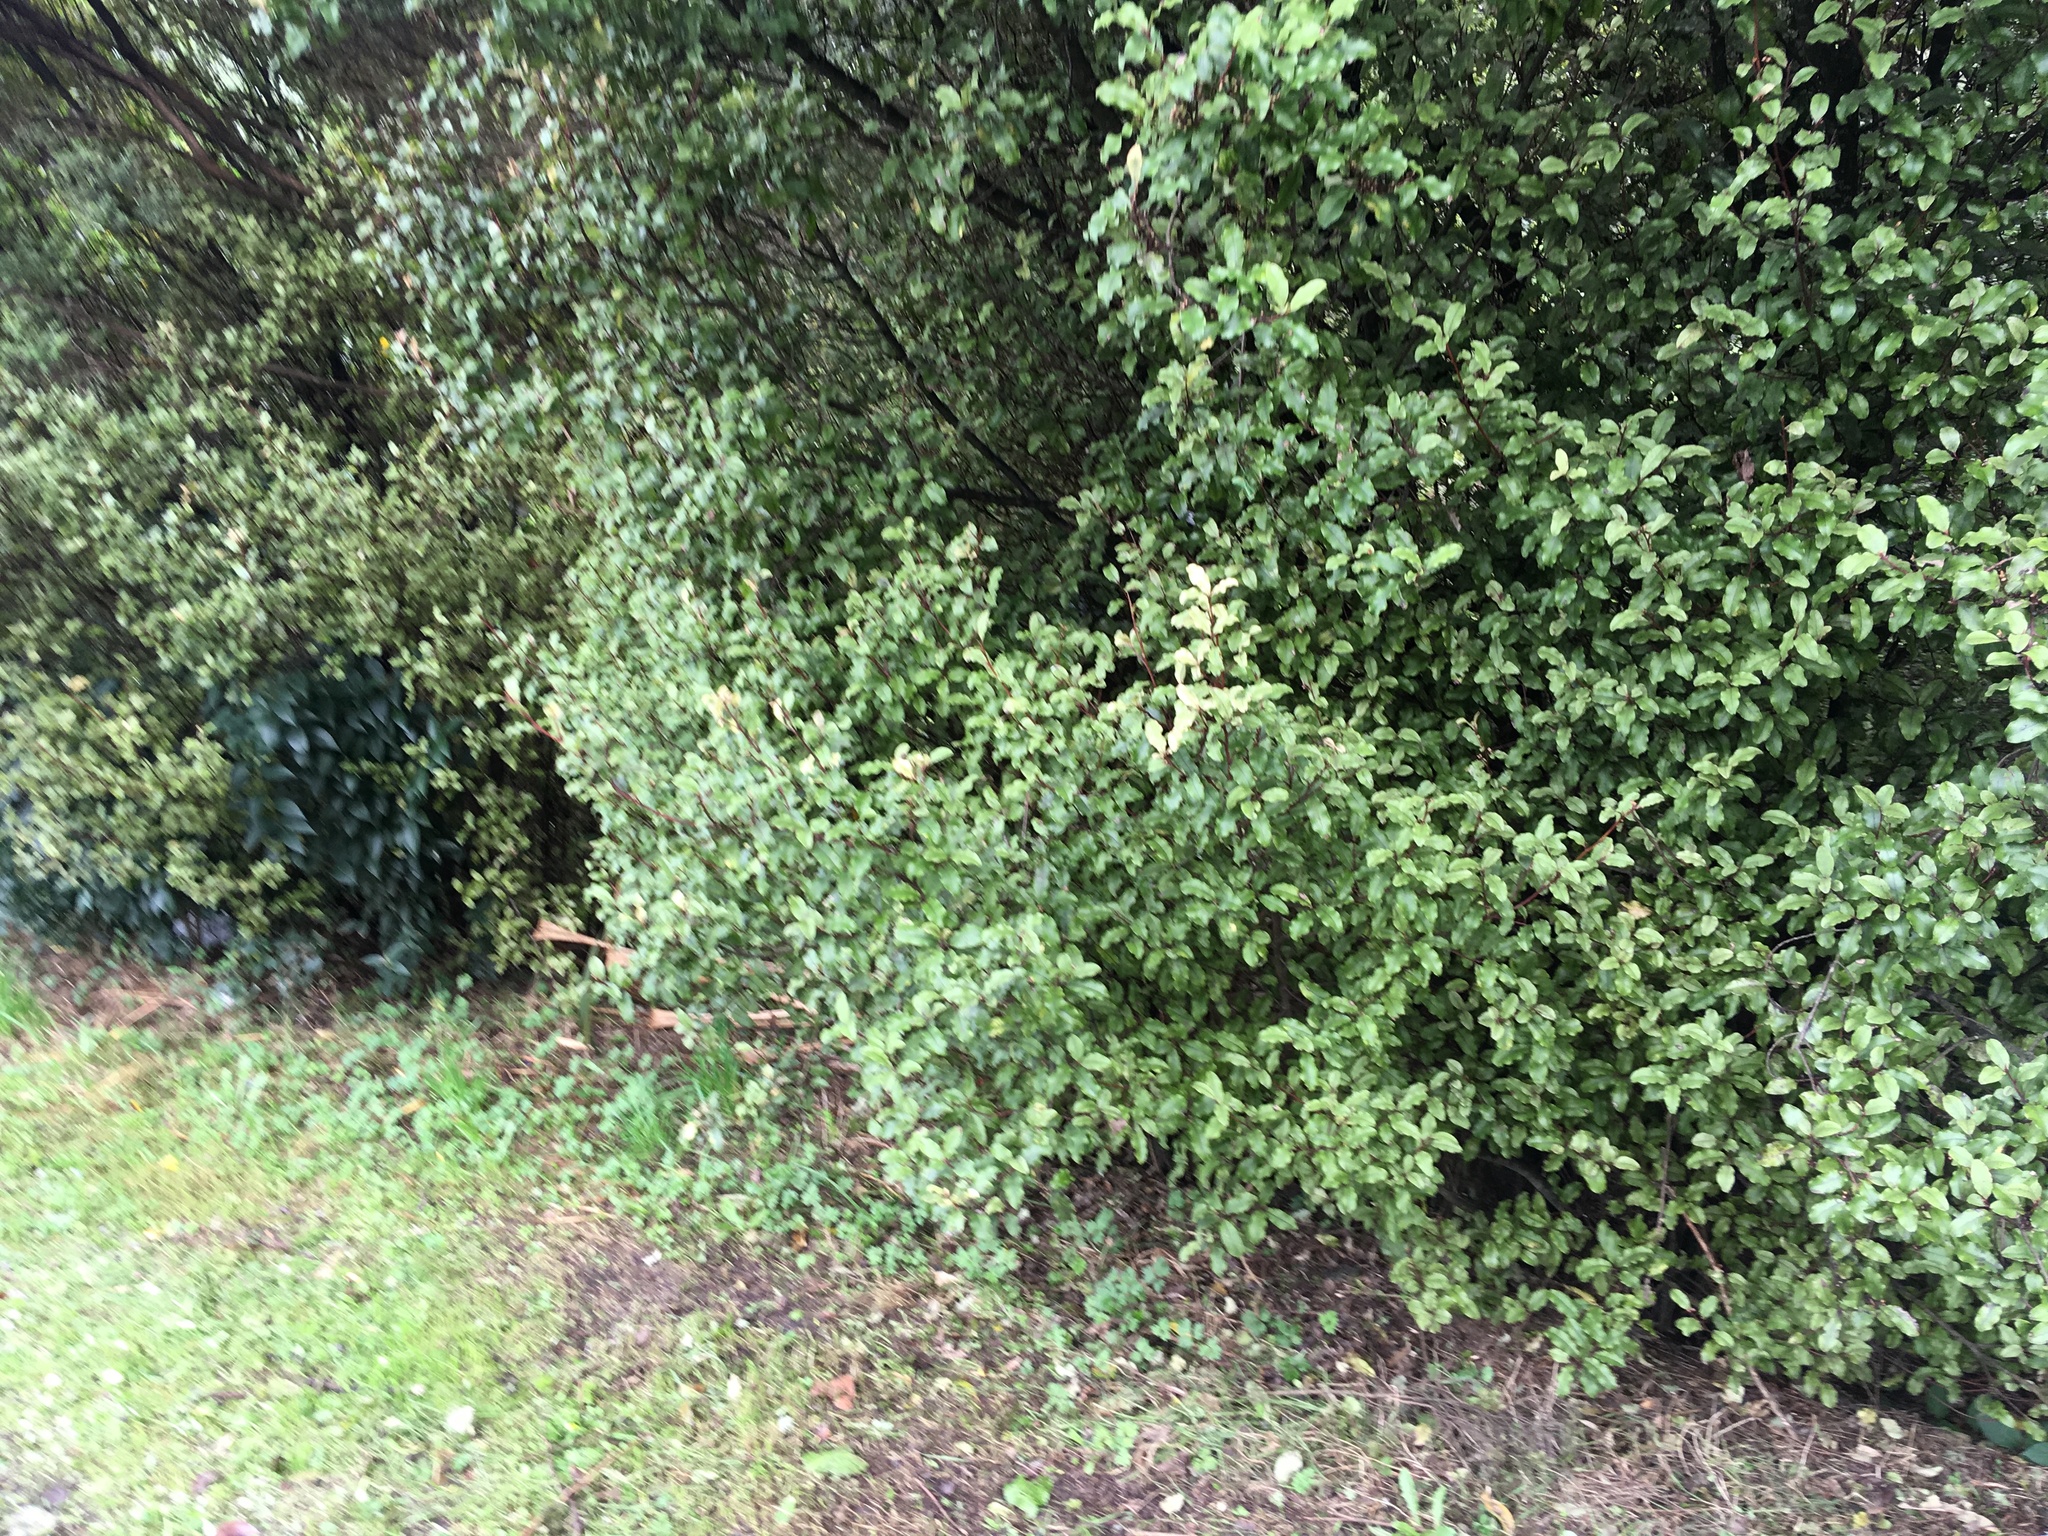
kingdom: Plantae
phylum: Tracheophyta
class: Magnoliopsida
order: Ericales
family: Primulaceae
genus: Myrsine
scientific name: Myrsine australis
